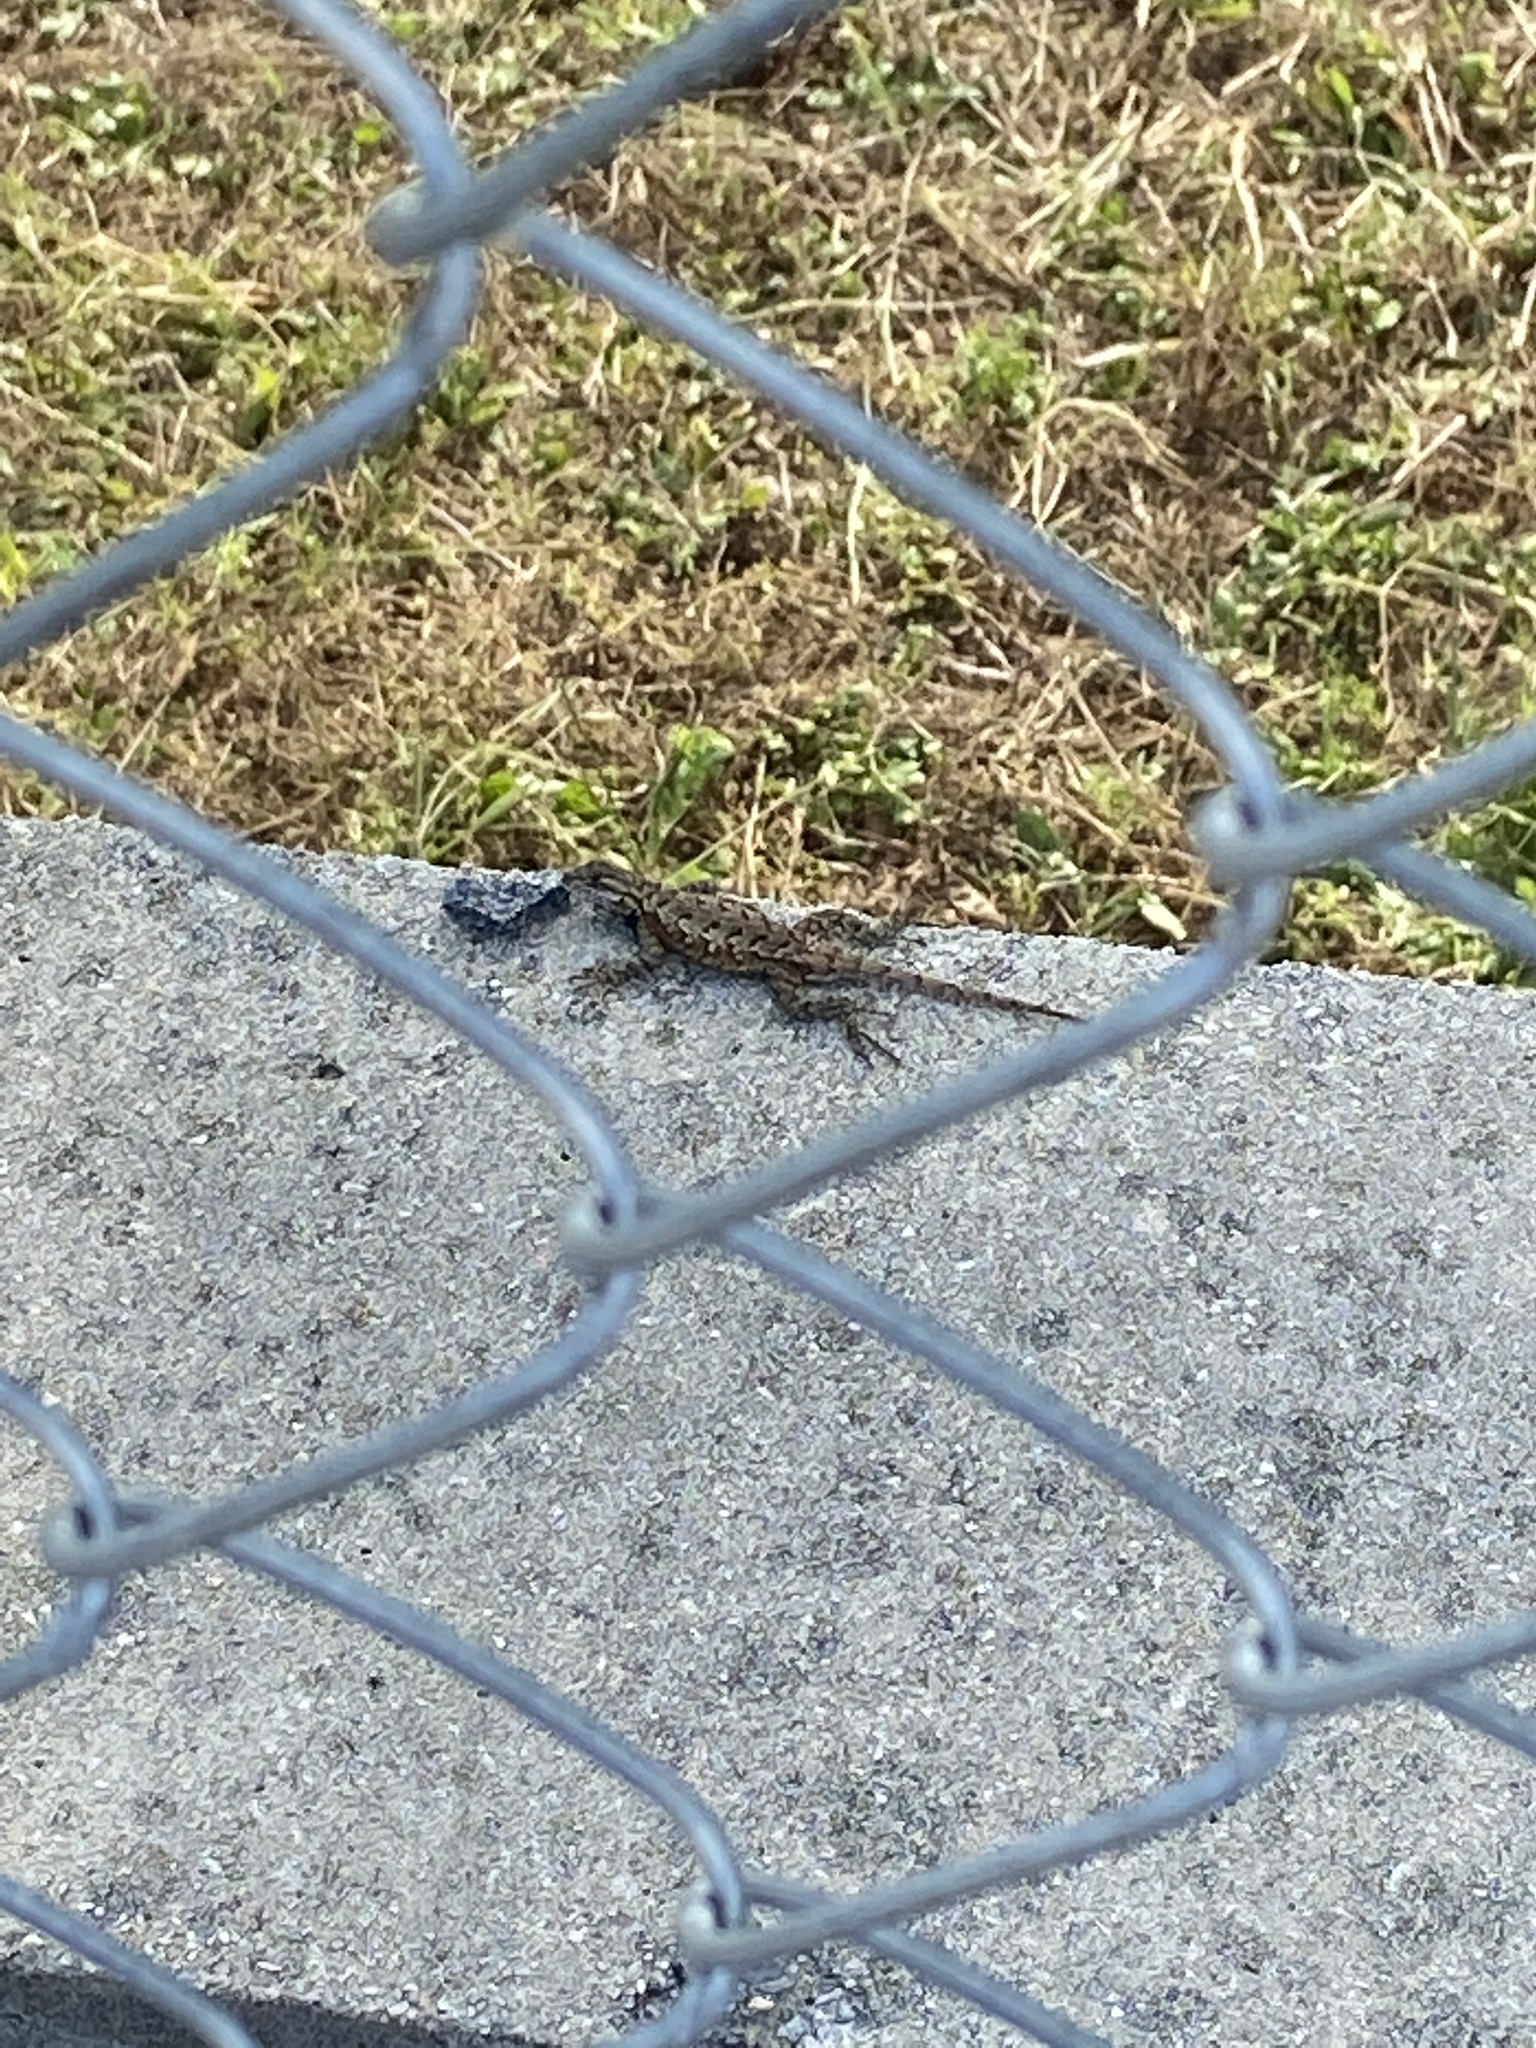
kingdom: Animalia
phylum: Chordata
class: Squamata
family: Phrynosomatidae
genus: Sceloporus
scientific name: Sceloporus undulatus
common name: Eastern fence lizard
